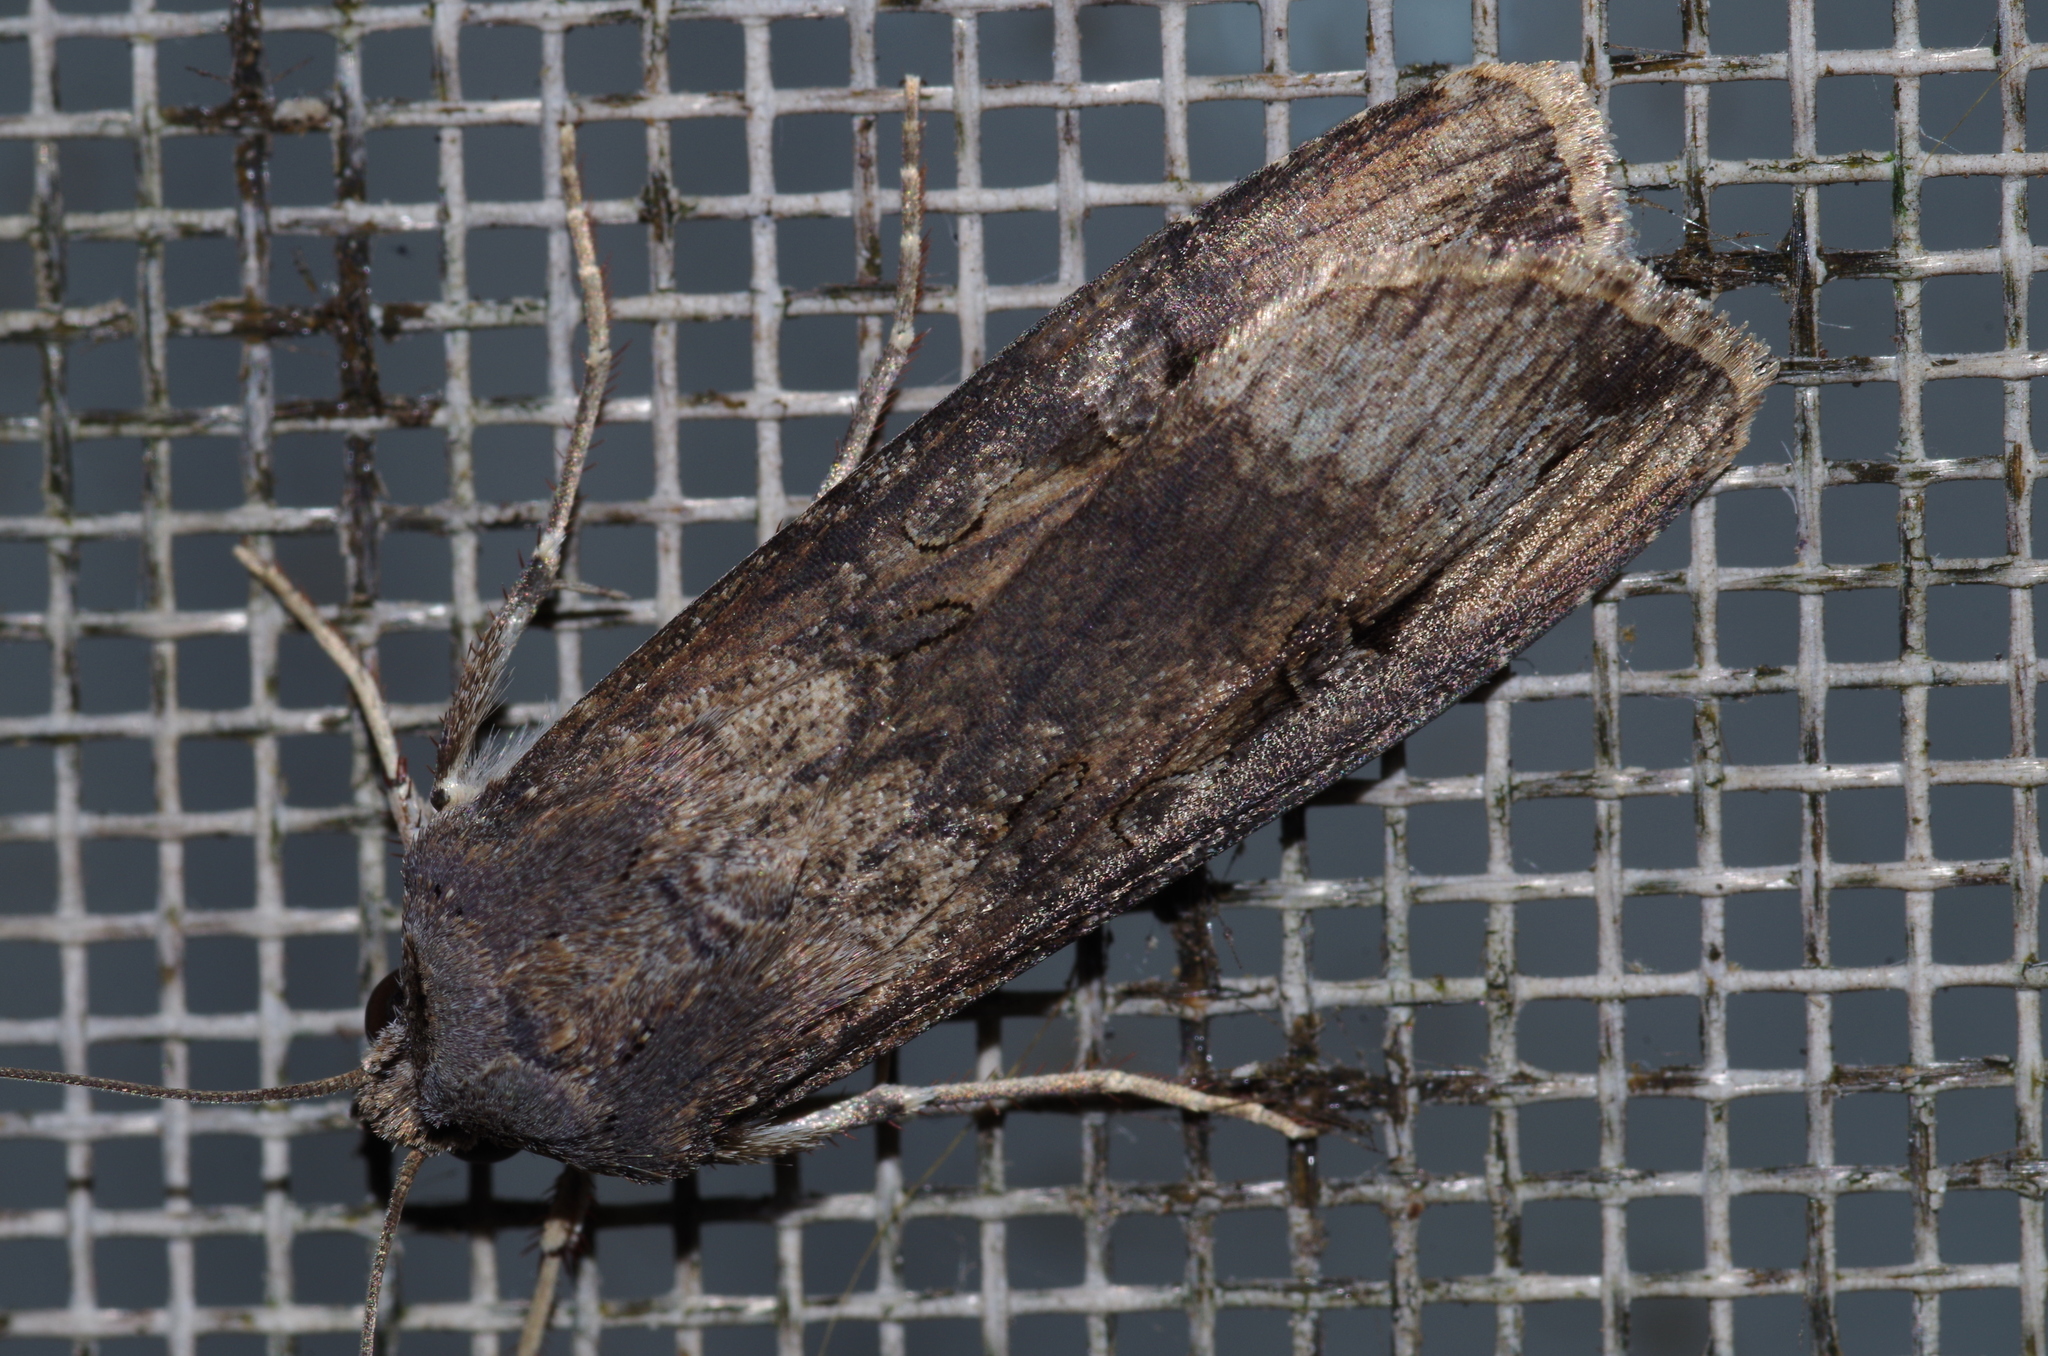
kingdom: Animalia
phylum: Arthropoda
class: Insecta
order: Lepidoptera
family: Noctuidae
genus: Agrotis
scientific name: Agrotis ipsilon
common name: Dark sword-grass
